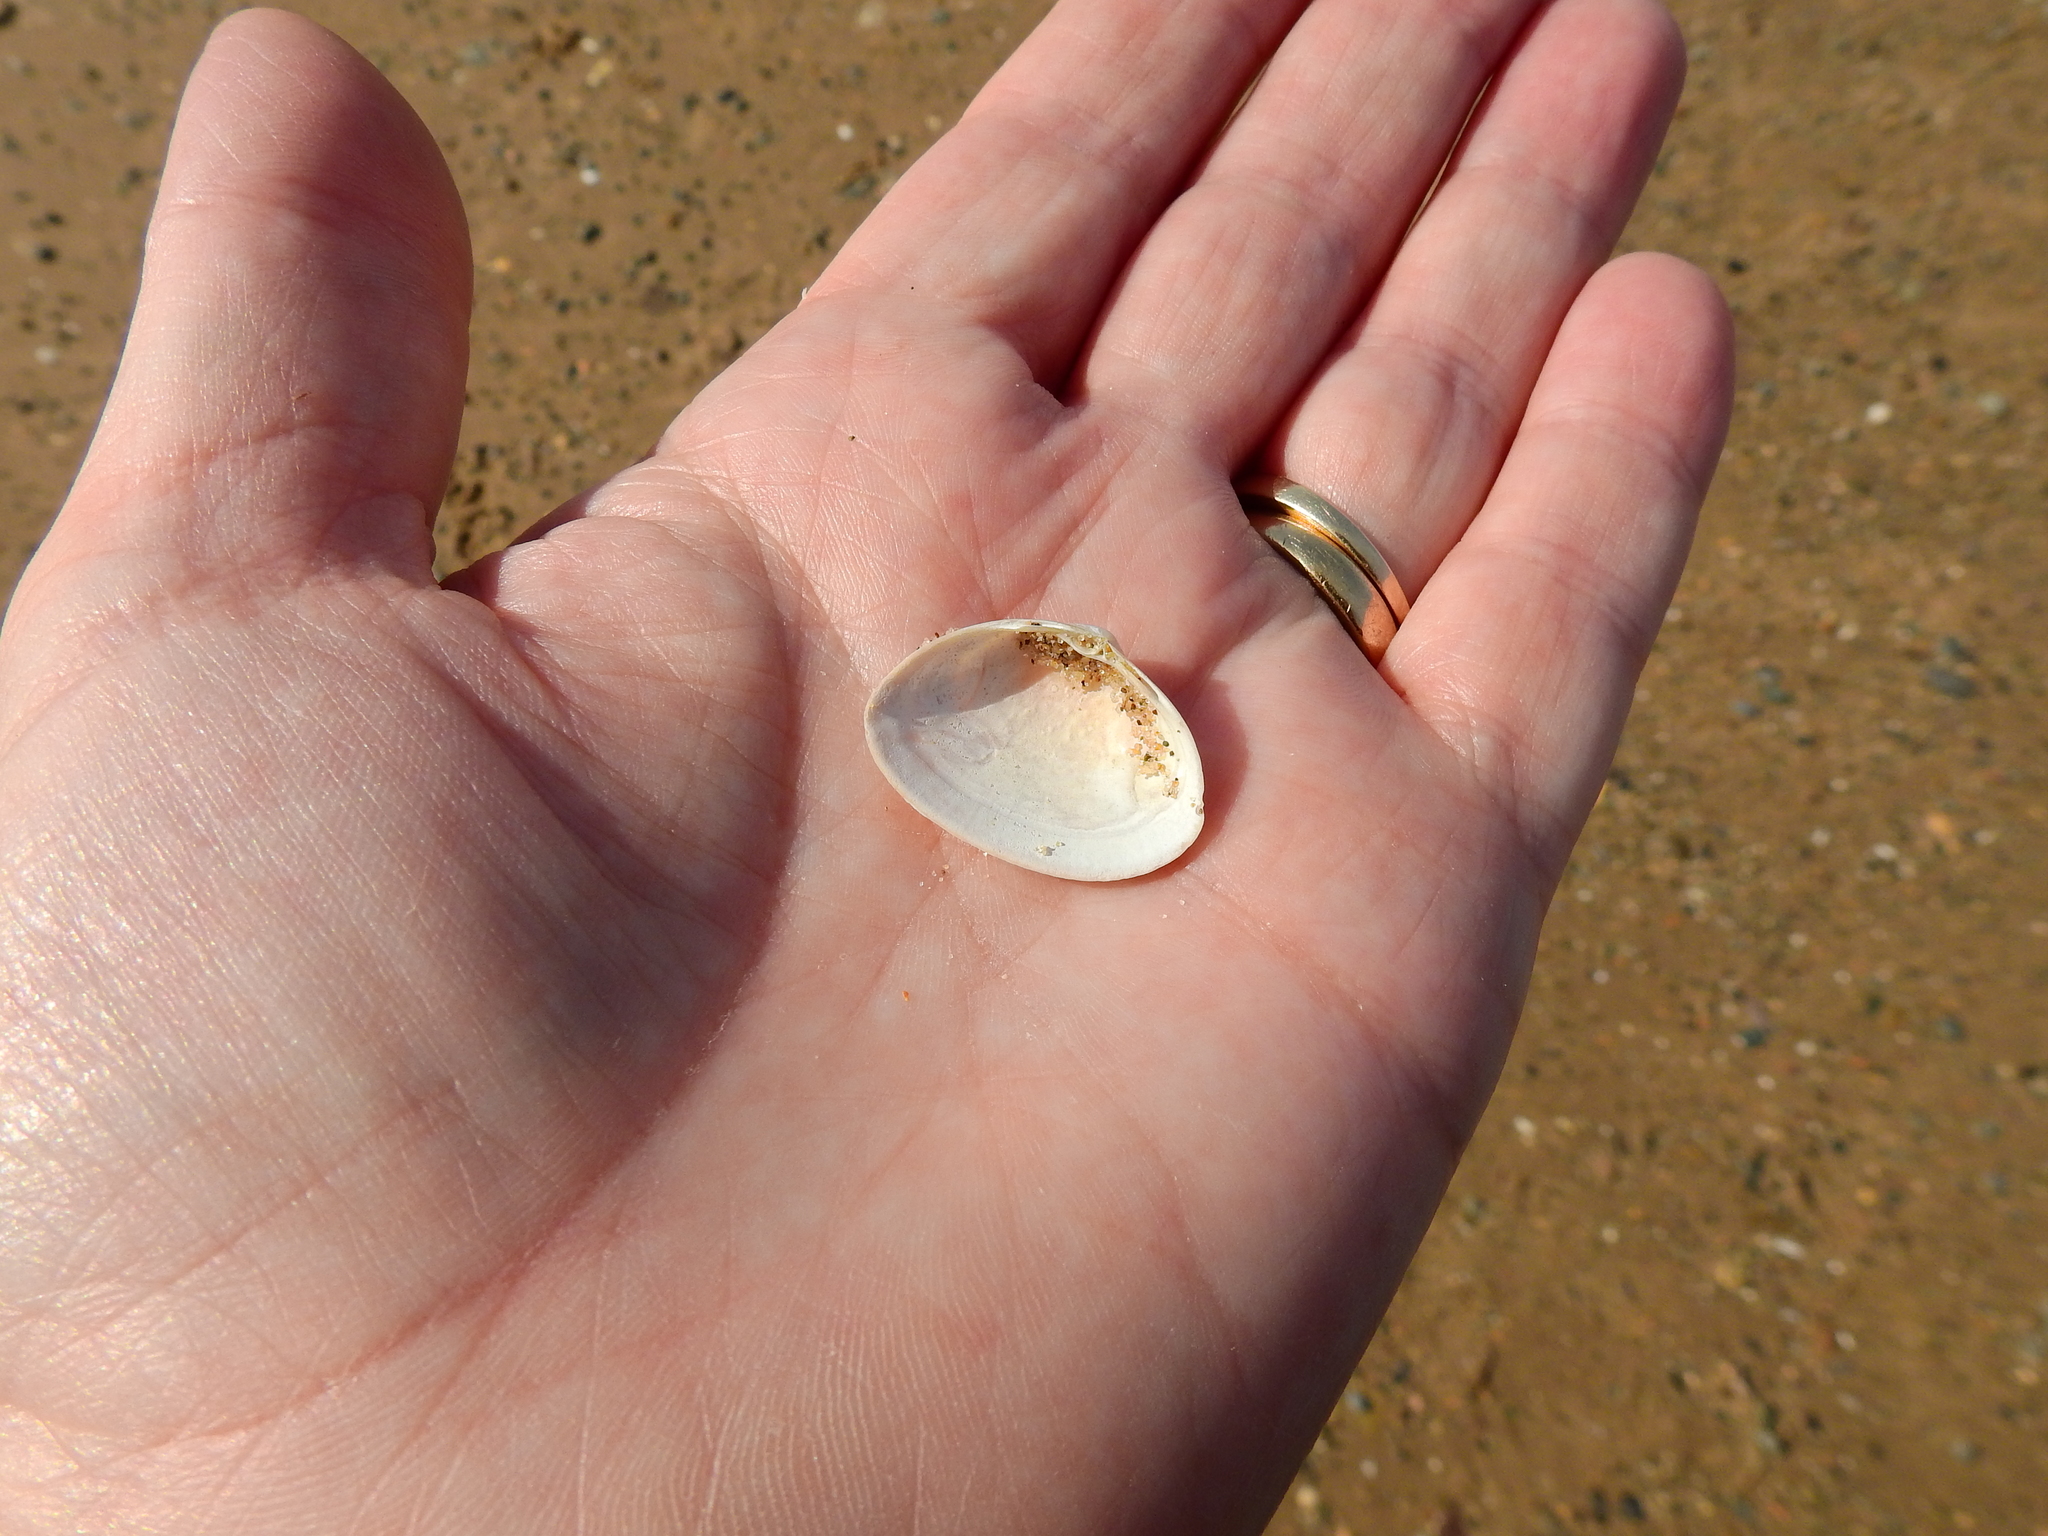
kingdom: Animalia
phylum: Mollusca
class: Bivalvia
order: Venerida
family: Mactridae
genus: Spisula
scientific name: Spisula elliptica
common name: Elliptic trough shell
